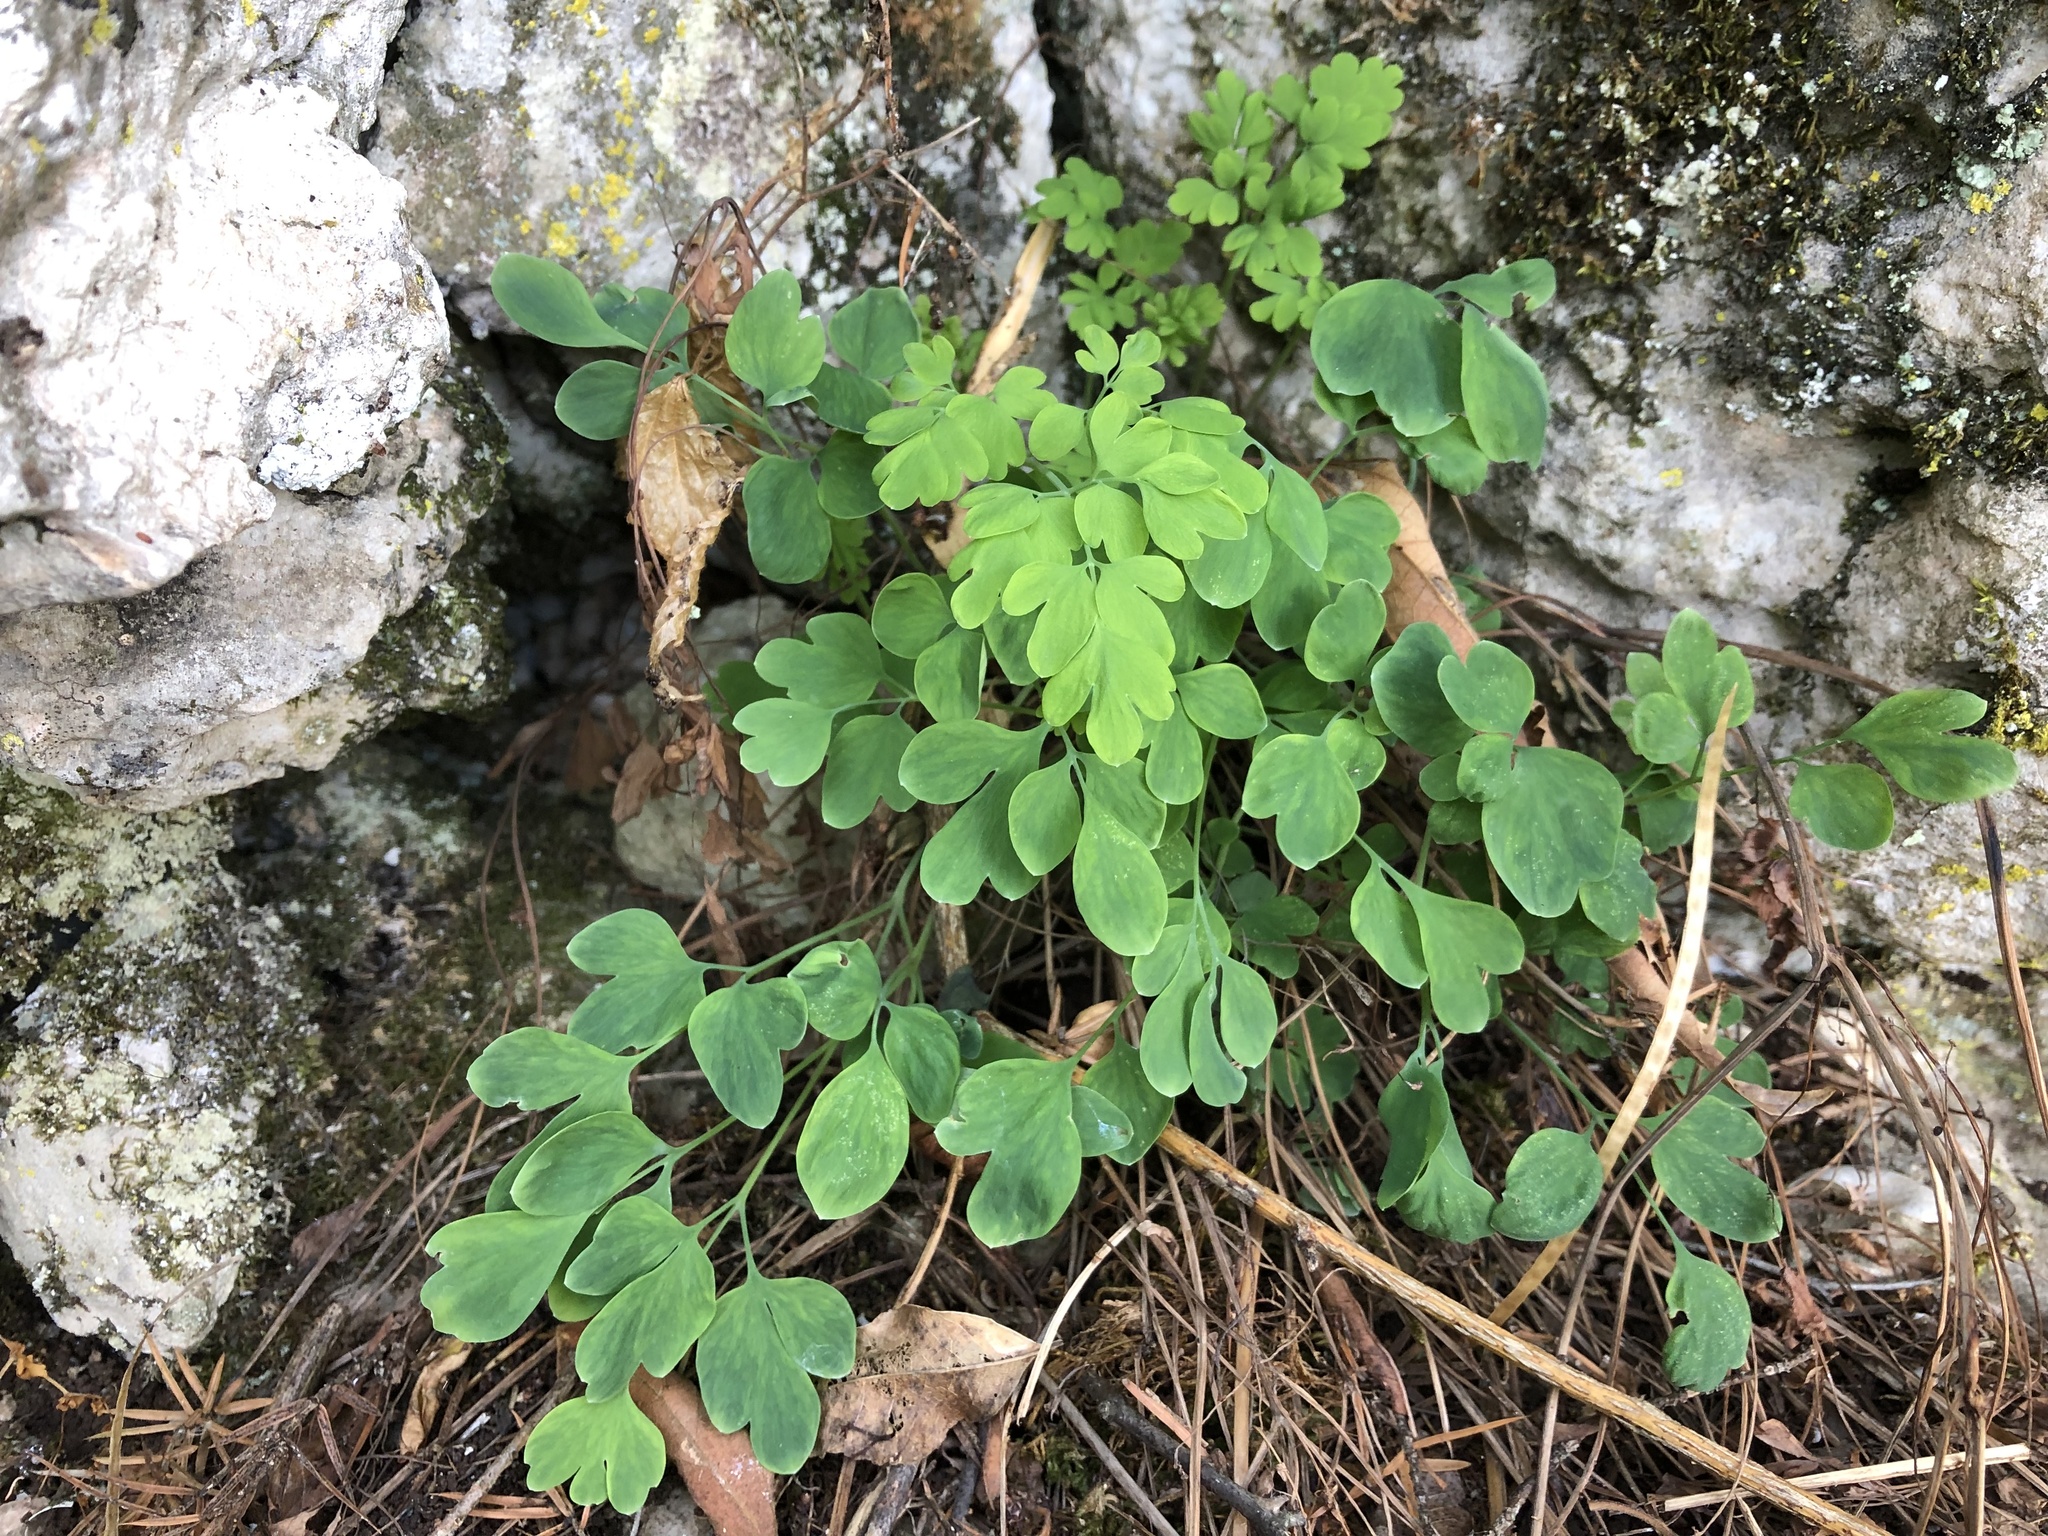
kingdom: Plantae
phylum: Tracheophyta
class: Magnoliopsida
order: Ranunculales
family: Ranunculaceae
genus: Isopyrum
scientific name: Isopyrum thalictroides
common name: Isopyrum
